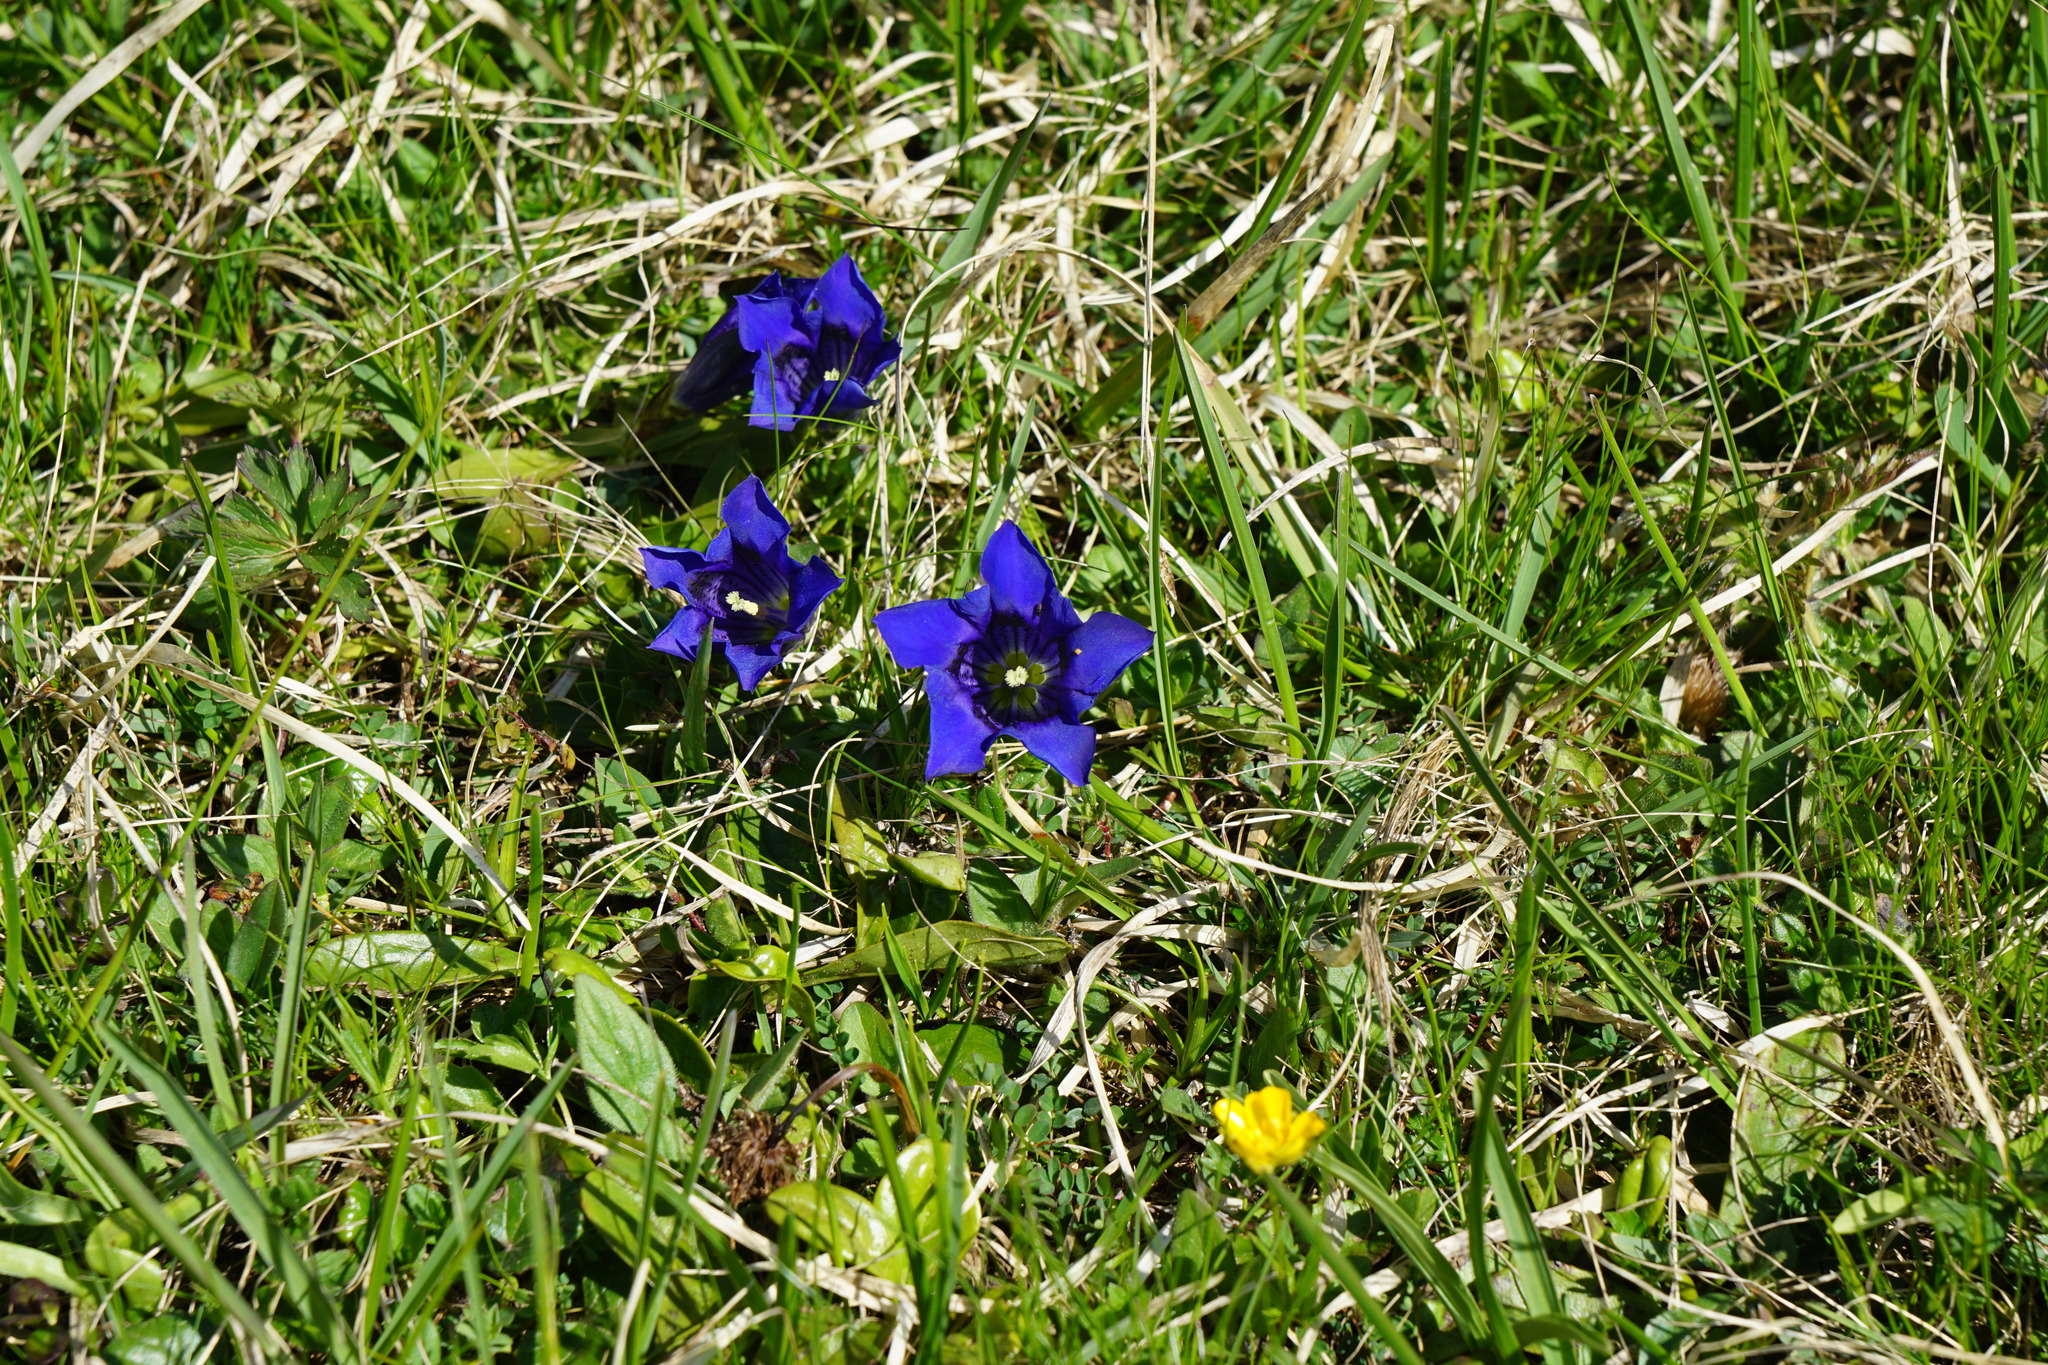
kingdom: Plantae
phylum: Tracheophyta
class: Magnoliopsida
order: Gentianales
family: Gentianaceae
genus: Gentiana
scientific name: Gentiana acaulis
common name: Trumpet gentian
